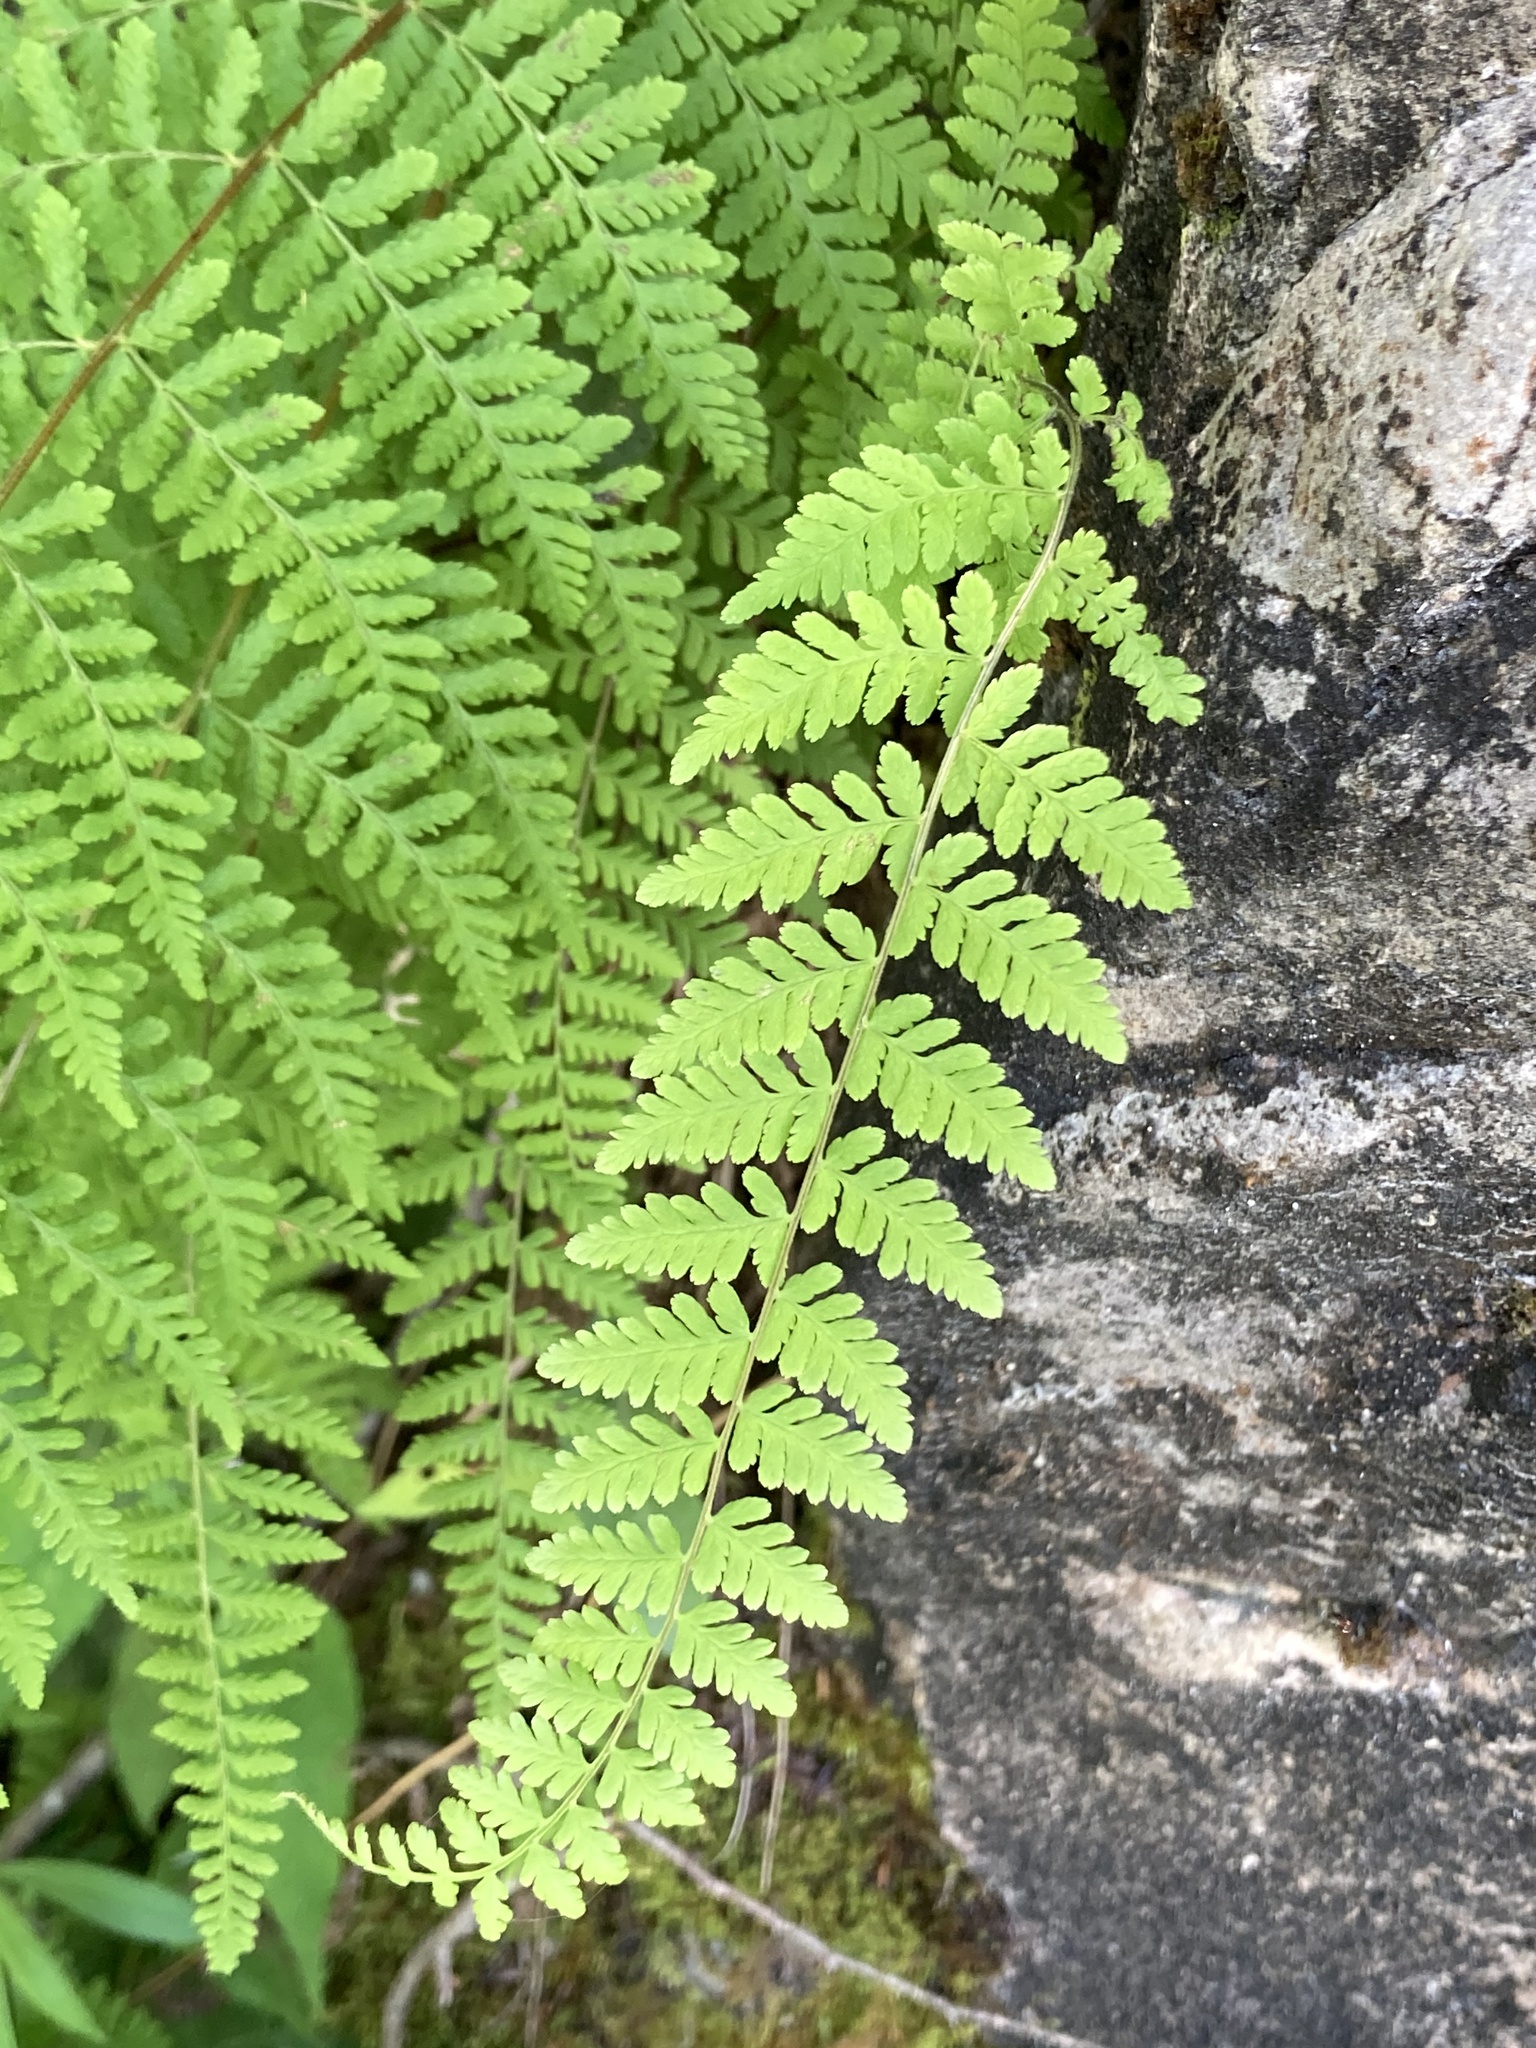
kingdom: Plantae
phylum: Tracheophyta
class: Polypodiopsida
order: Polypodiales
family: Cystopteridaceae
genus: Cystopteris
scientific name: Cystopteris bulbifera
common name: Bulblet bladder fern
